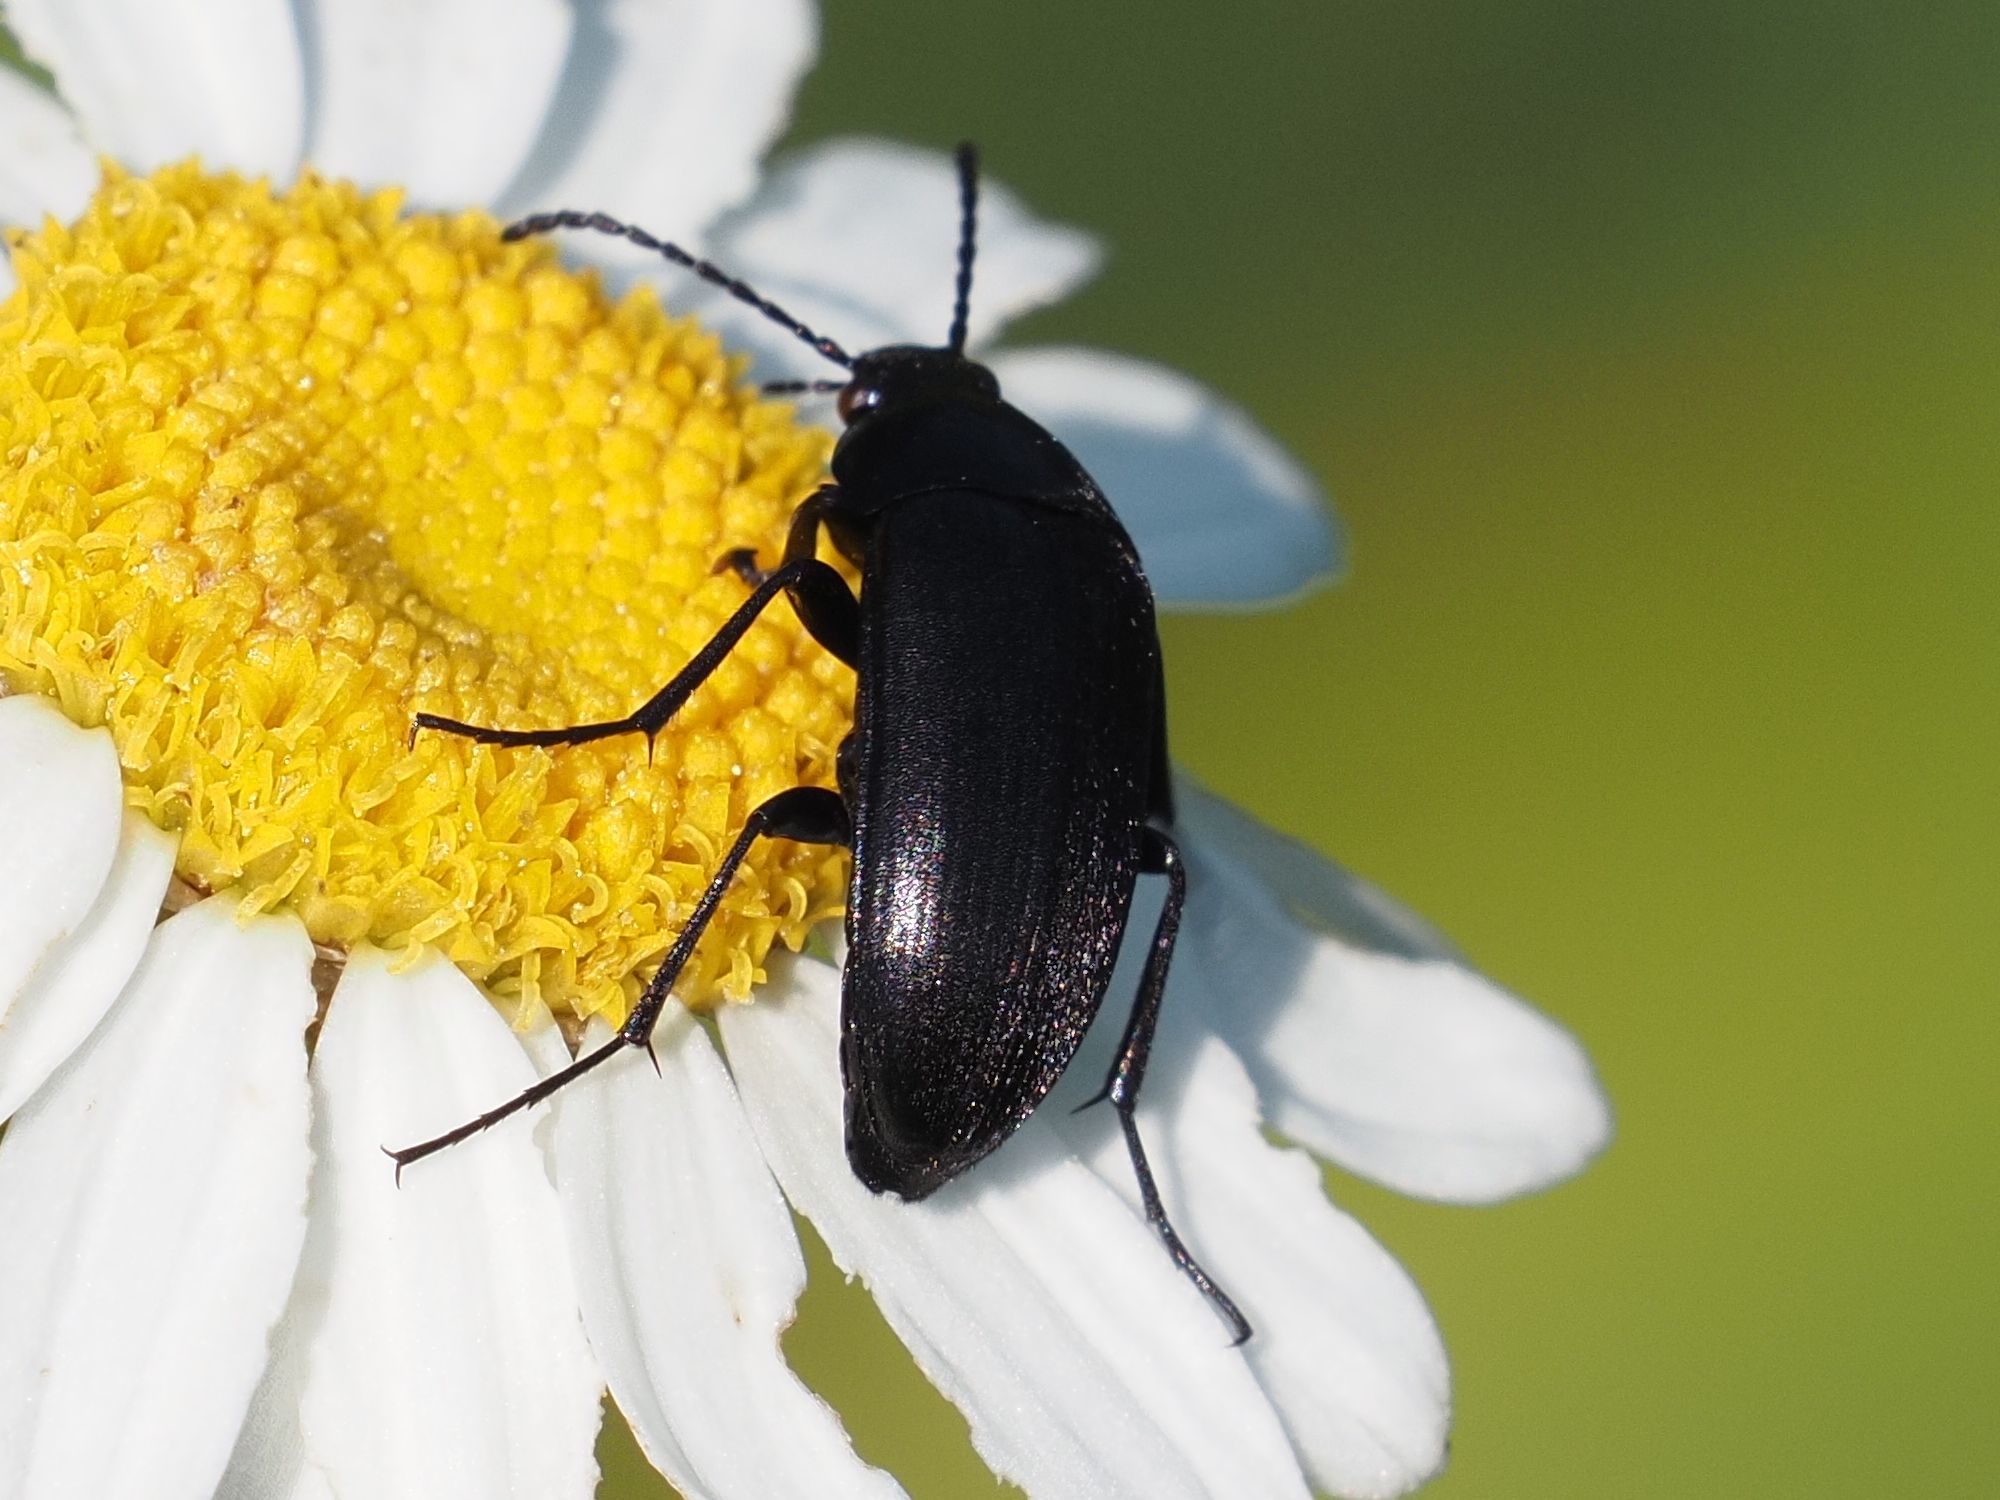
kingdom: Animalia
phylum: Arthropoda
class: Insecta
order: Coleoptera
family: Tenebrionidae
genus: Podonta
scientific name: Podonta nigrita
